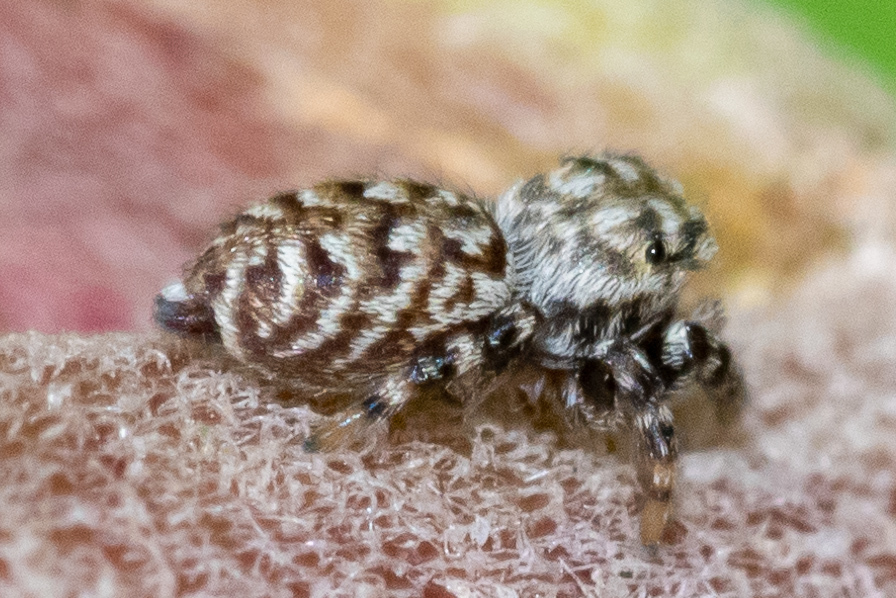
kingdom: Animalia
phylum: Arthropoda
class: Arachnida
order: Araneae
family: Salticidae
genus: Pelegrina
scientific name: Pelegrina galathea
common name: Jumping spiders
